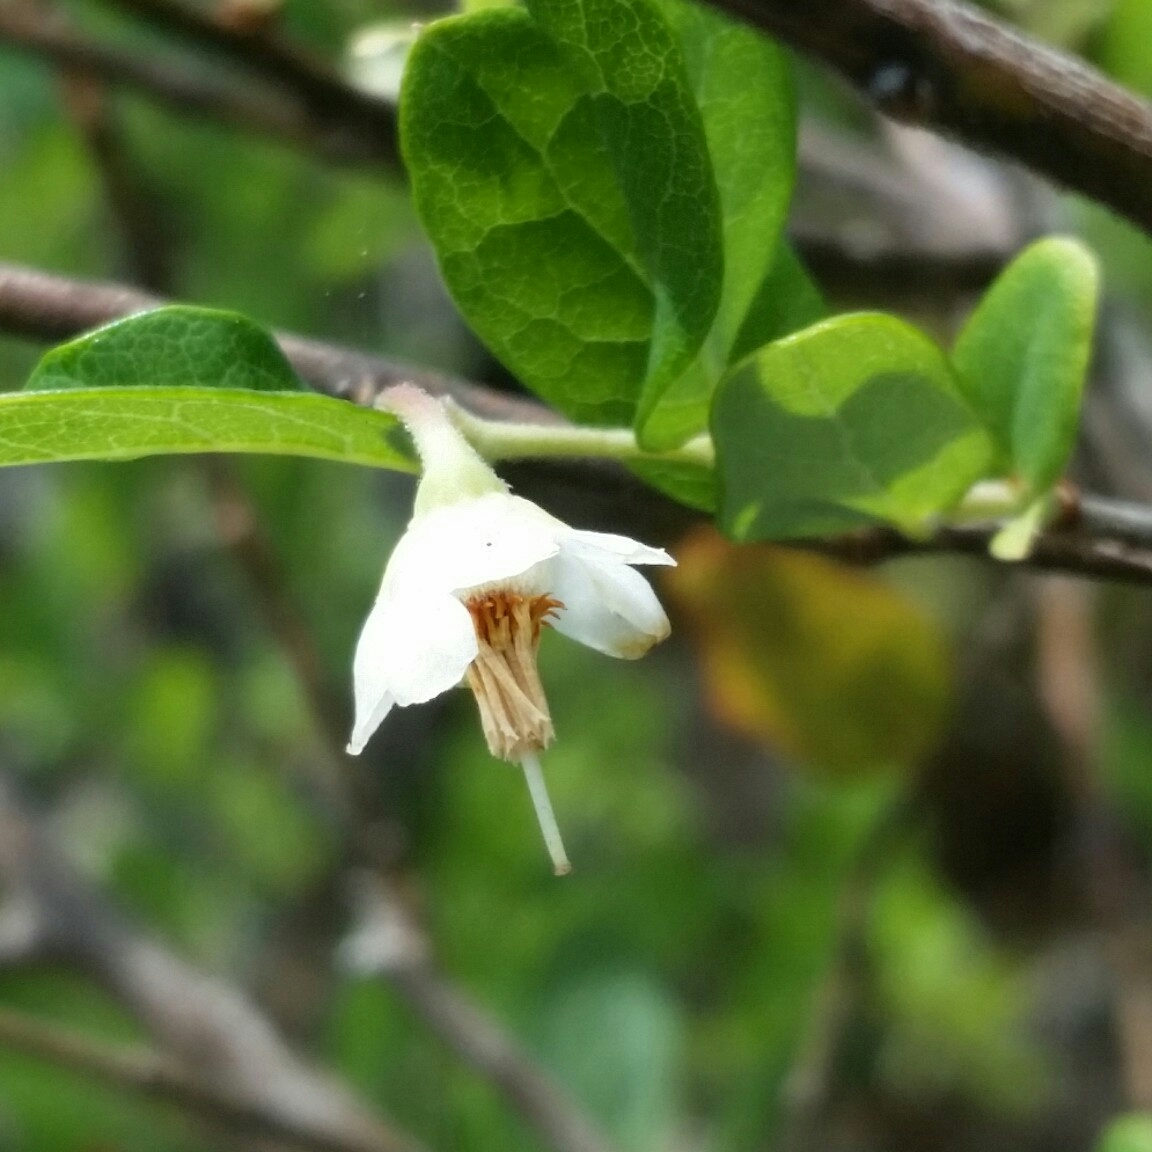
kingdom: Plantae
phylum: Tracheophyta
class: Magnoliopsida
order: Ericales
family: Ericaceae
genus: Vaccinium
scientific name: Vaccinium stamineum
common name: Deerberry
